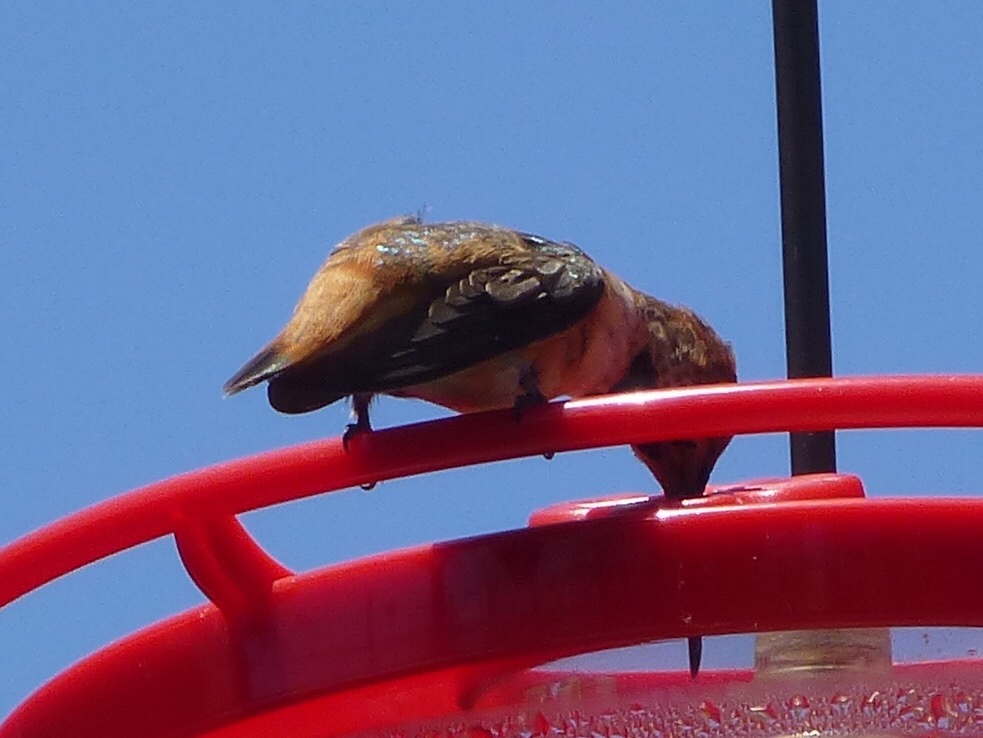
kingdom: Animalia
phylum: Chordata
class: Aves
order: Apodiformes
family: Trochilidae
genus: Selasphorus
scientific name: Selasphorus sasin
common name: Allen's hummingbird
